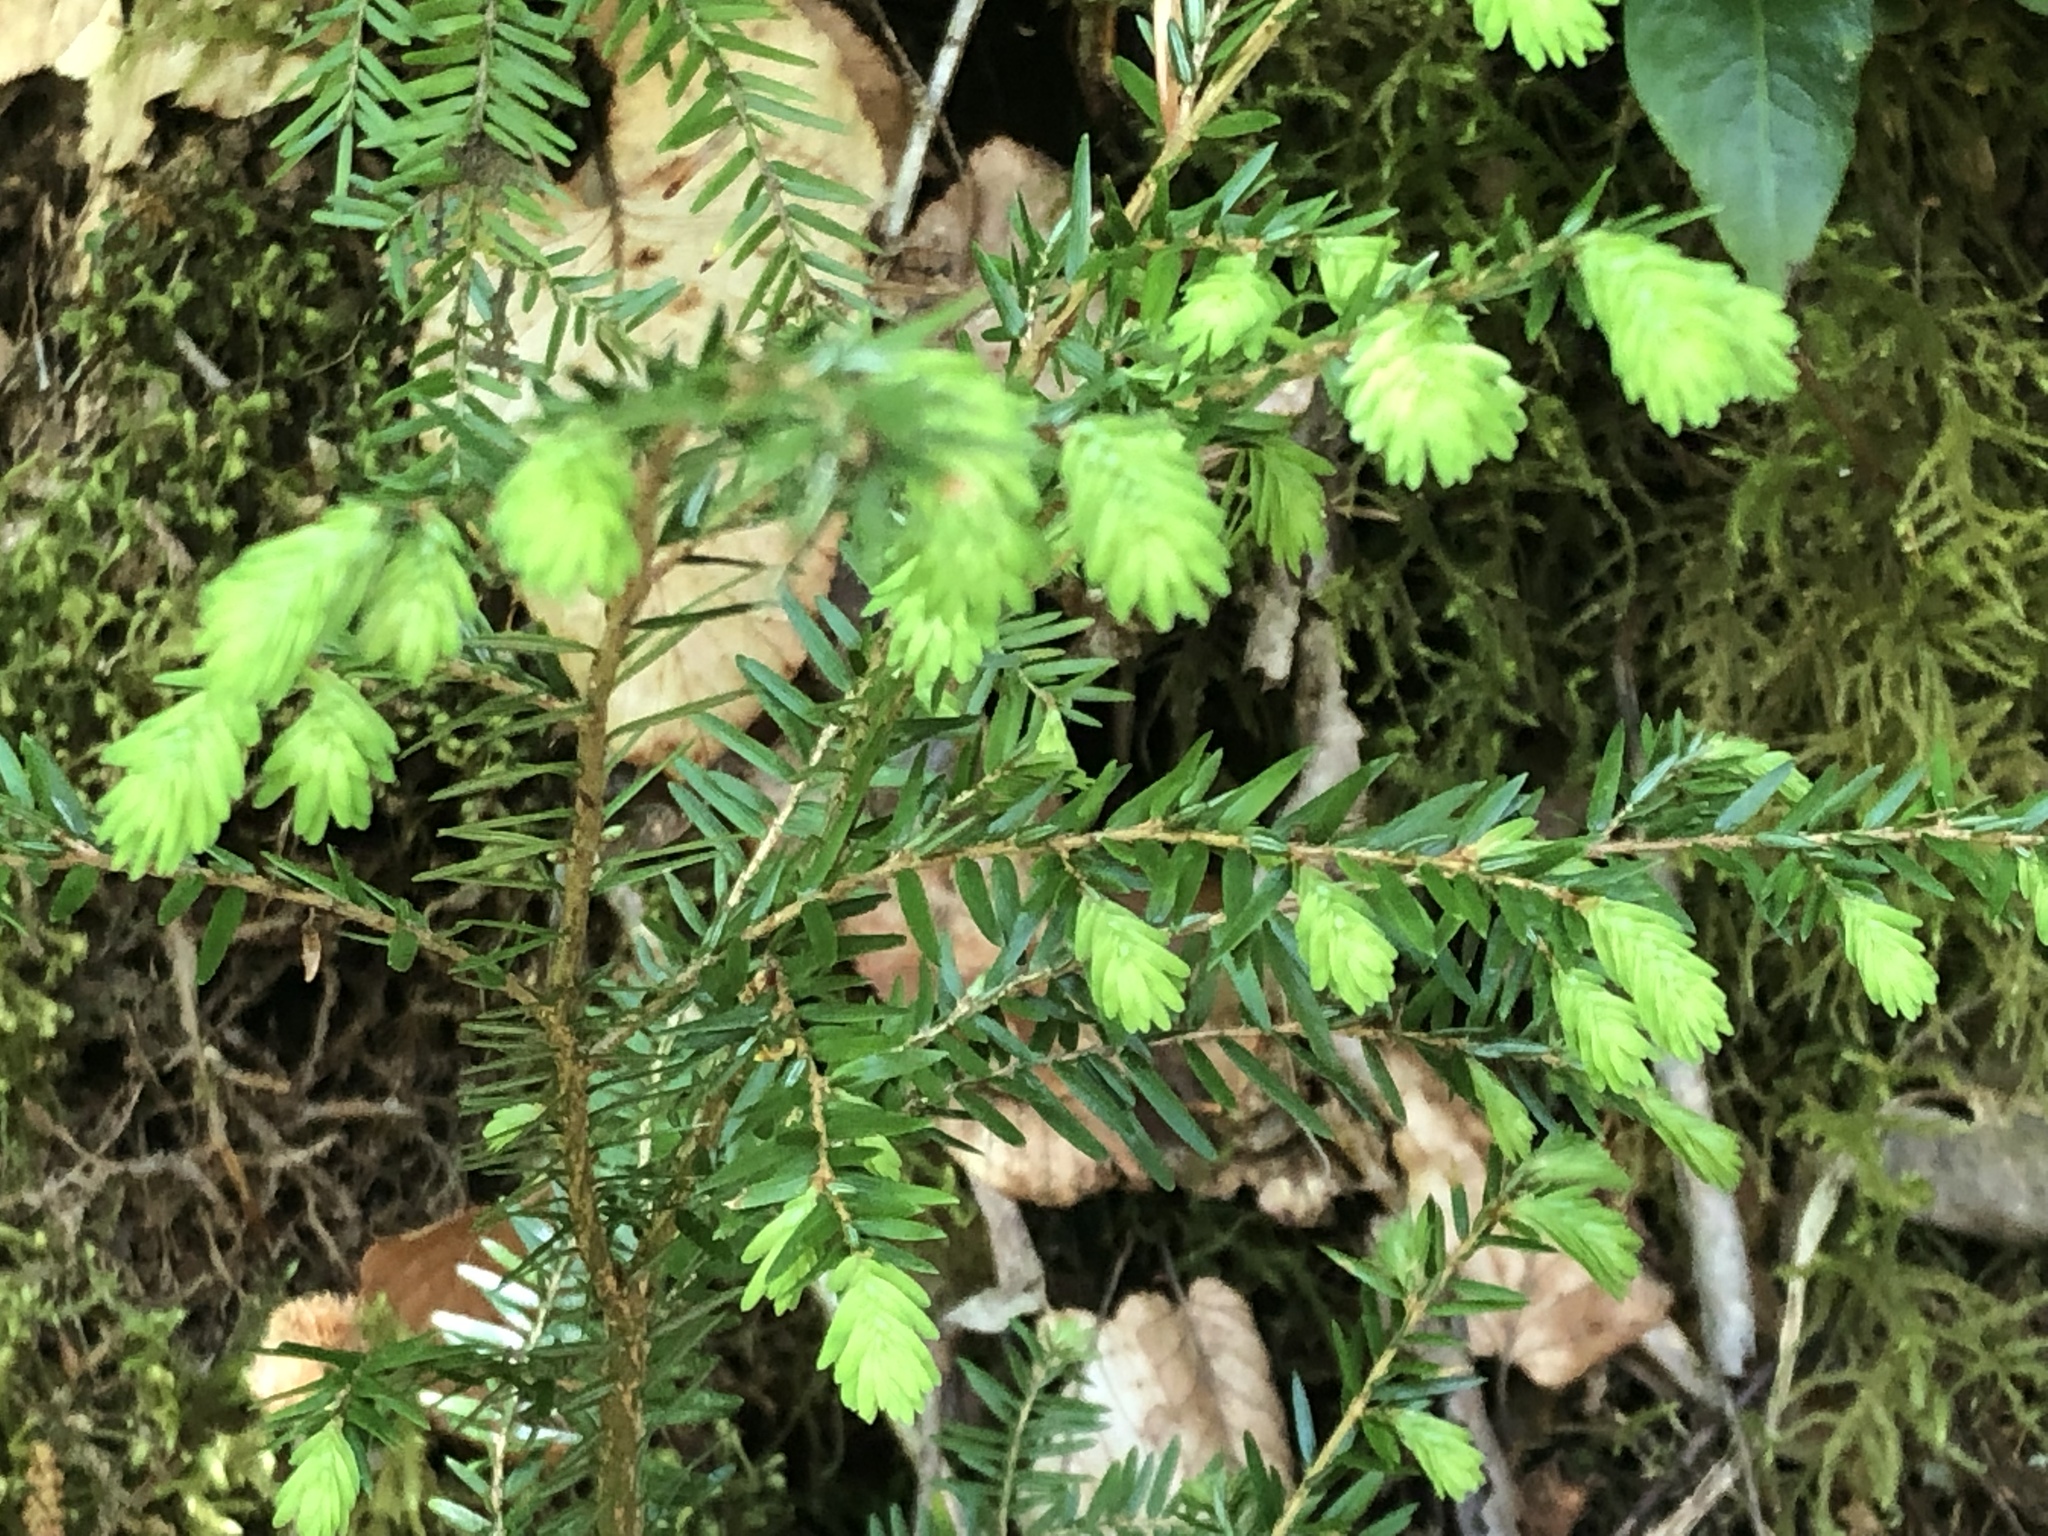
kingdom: Plantae
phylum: Tracheophyta
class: Pinopsida
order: Pinales
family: Pinaceae
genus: Tsuga
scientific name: Tsuga canadensis
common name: Eastern hemlock
